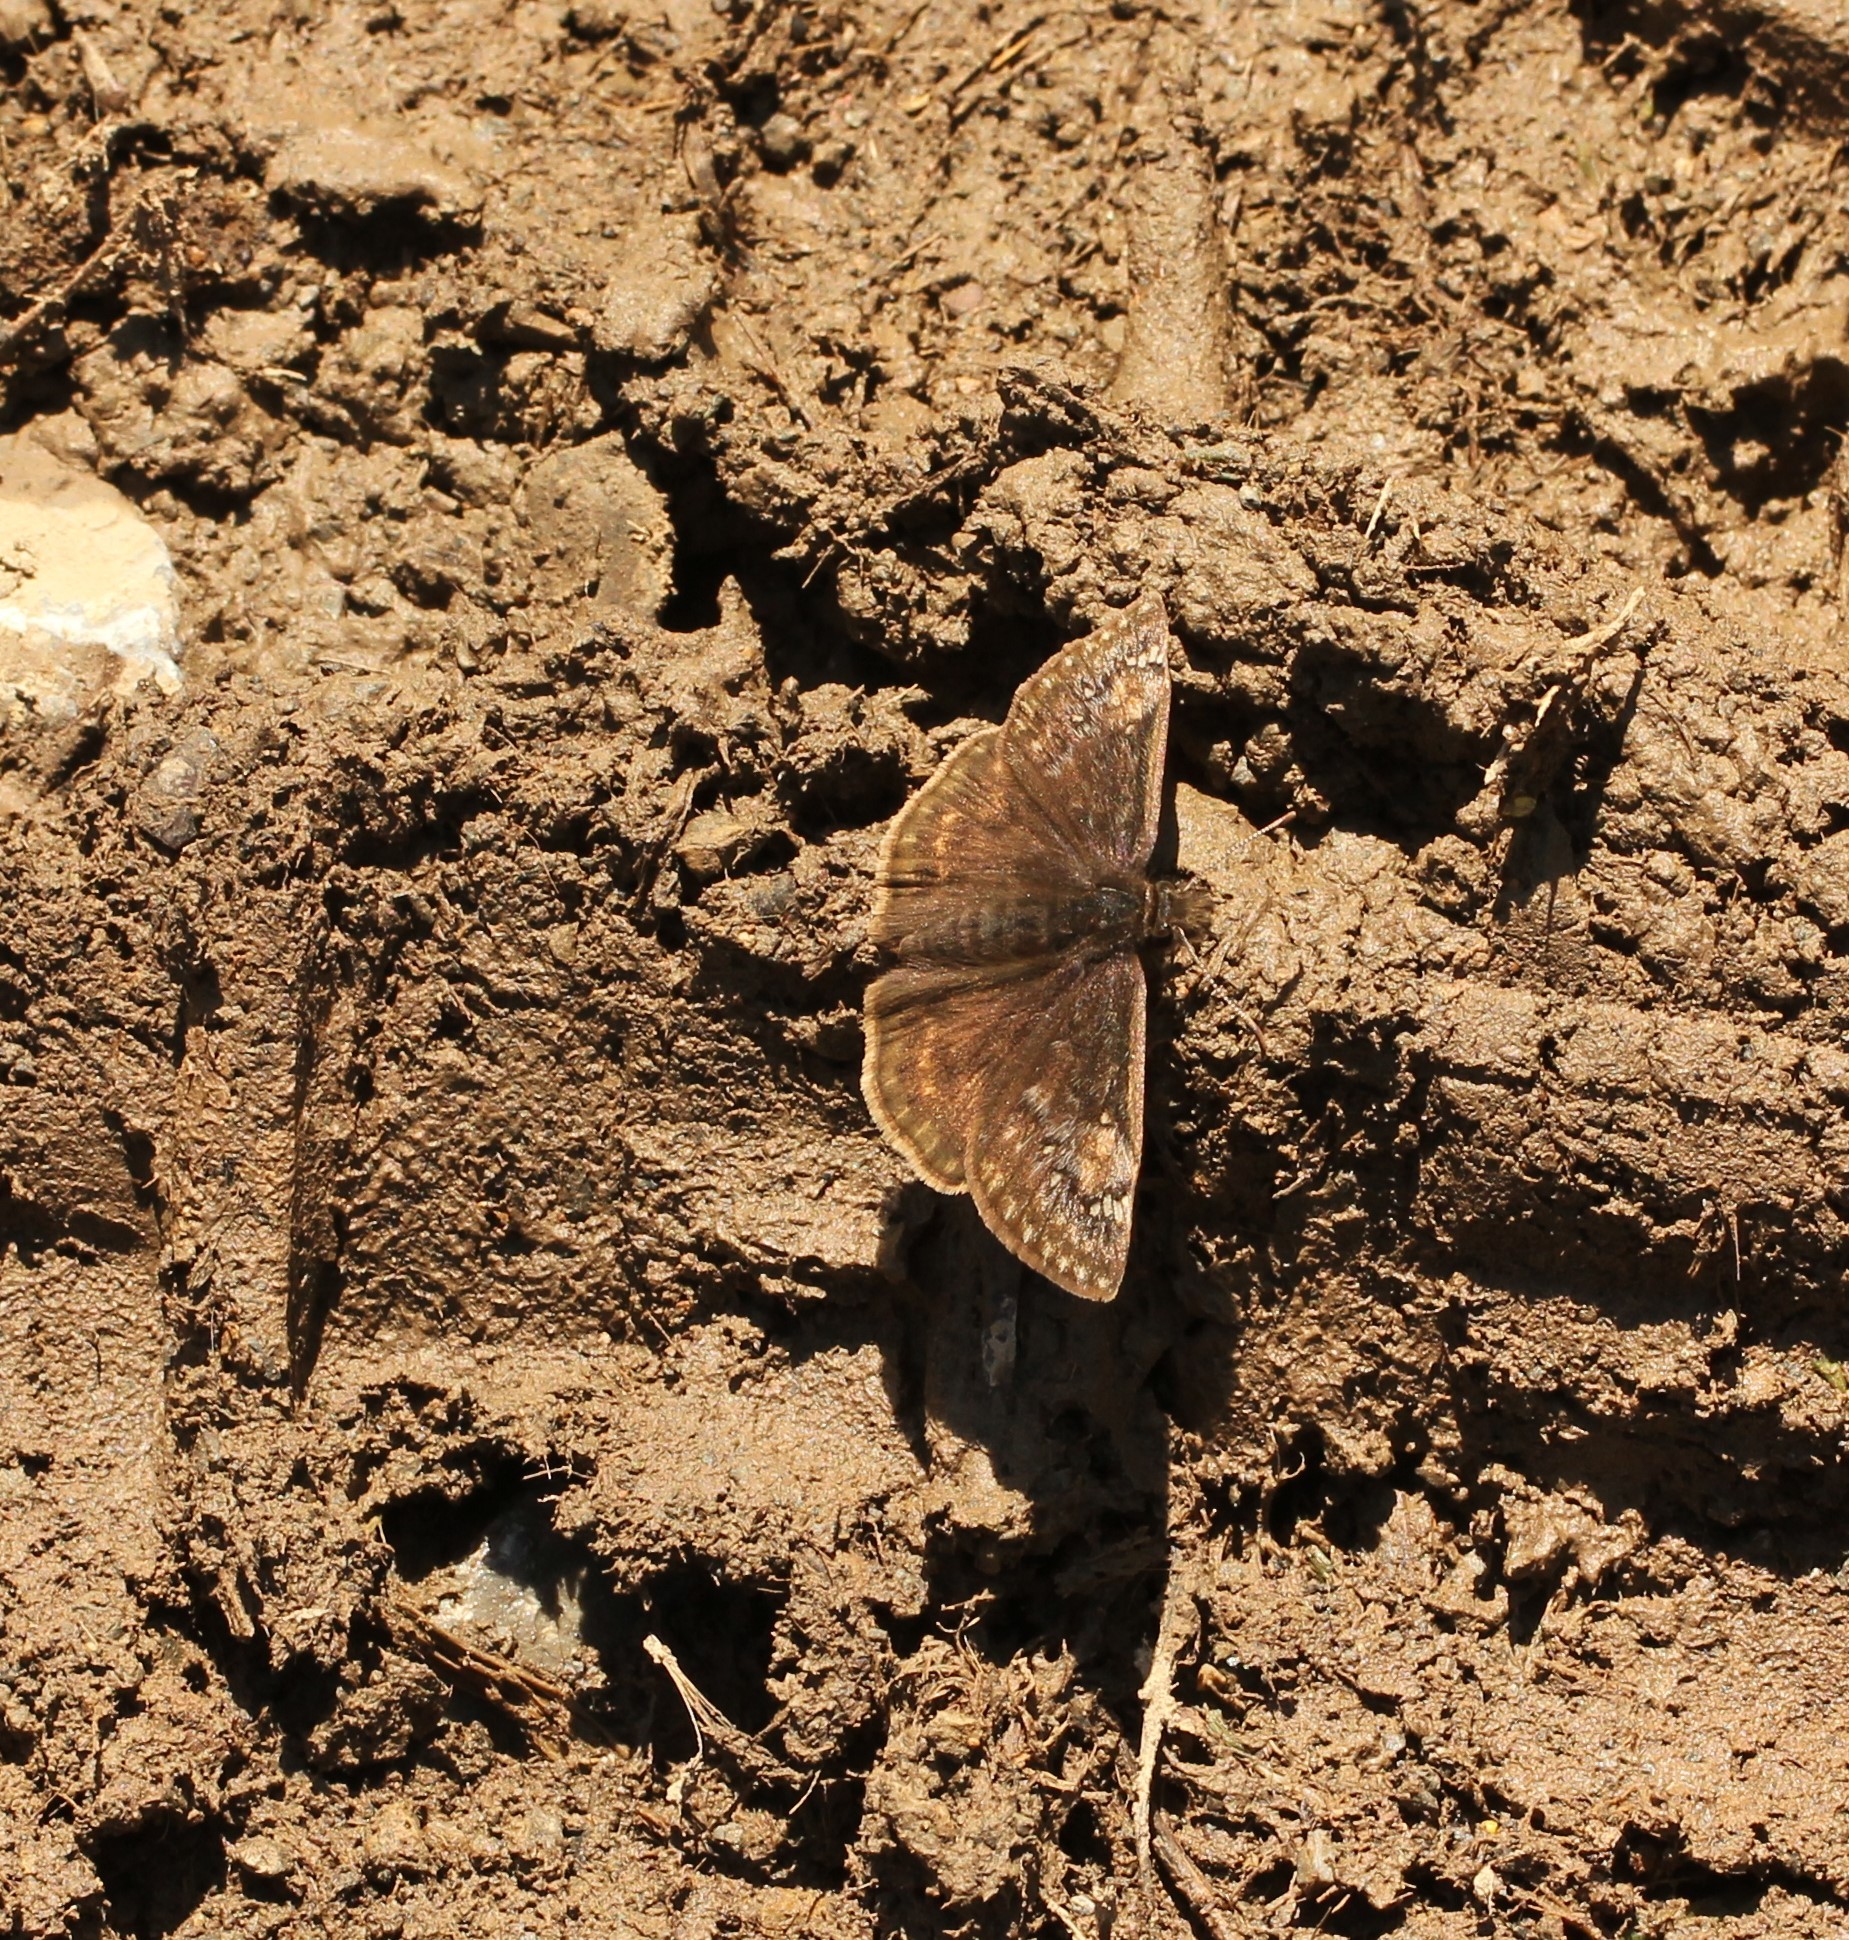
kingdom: Animalia
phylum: Arthropoda
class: Insecta
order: Lepidoptera
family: Hesperiidae
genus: Erynnis
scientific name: Erynnis juvenalis
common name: Juvenal's duskywing
